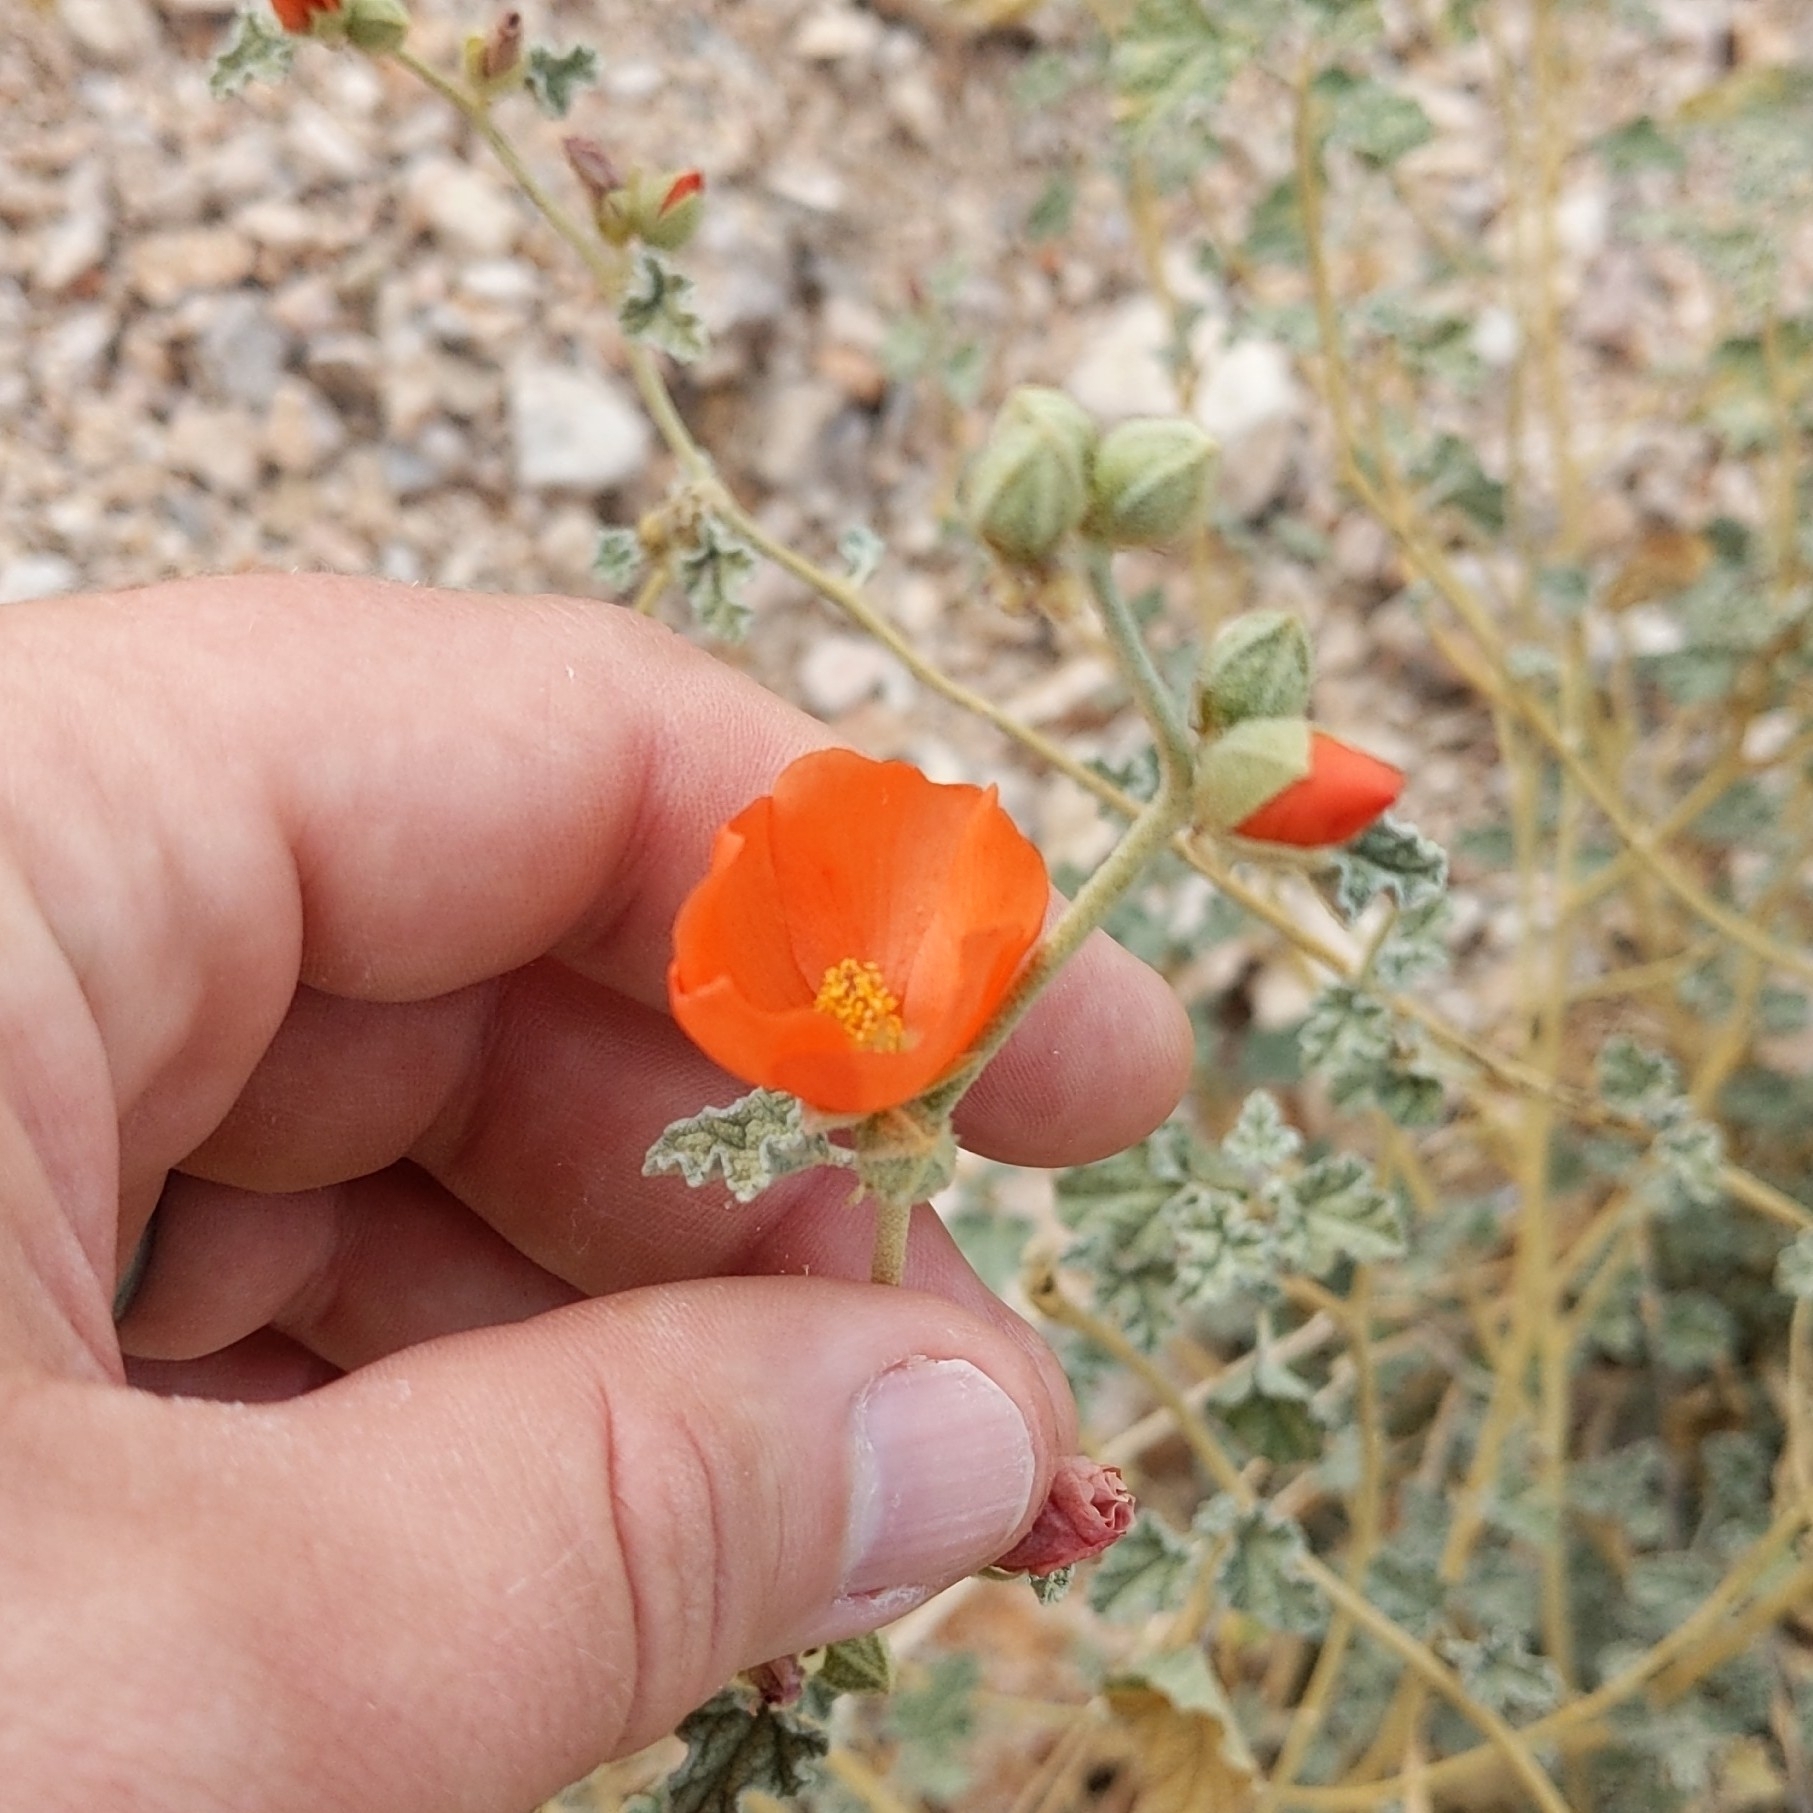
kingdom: Plantae
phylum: Tracheophyta
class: Magnoliopsida
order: Malvales
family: Malvaceae
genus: Sphaeralcea
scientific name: Sphaeralcea ambigua
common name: Apricot globe-mallow
